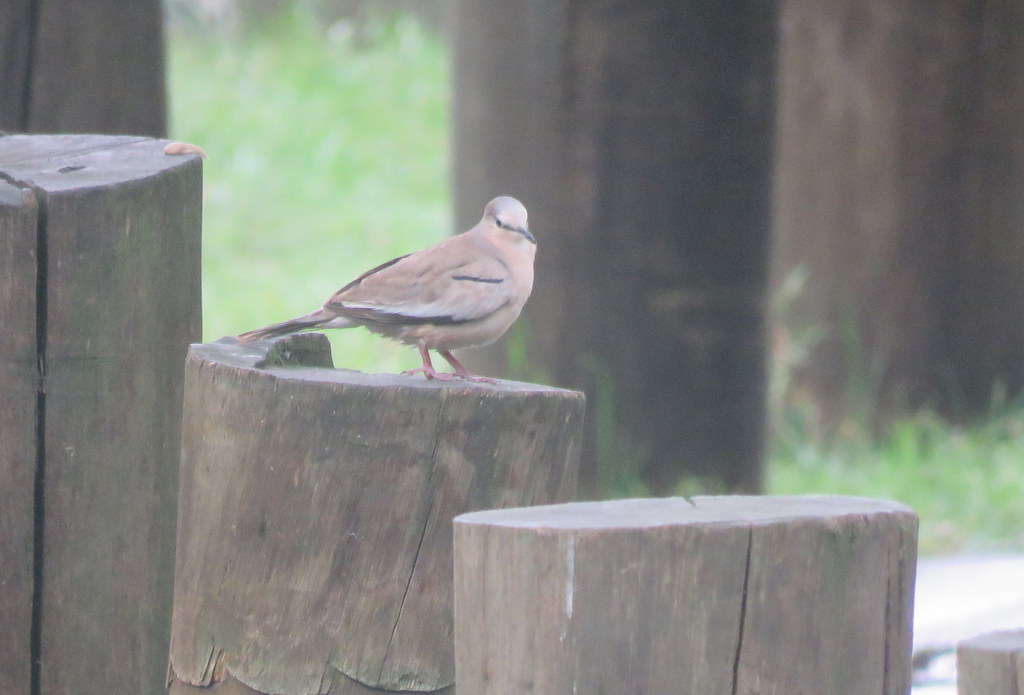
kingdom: Animalia
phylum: Chordata
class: Aves
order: Columbiformes
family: Columbidae
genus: Columbina
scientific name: Columbina picui
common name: Picui ground dove
